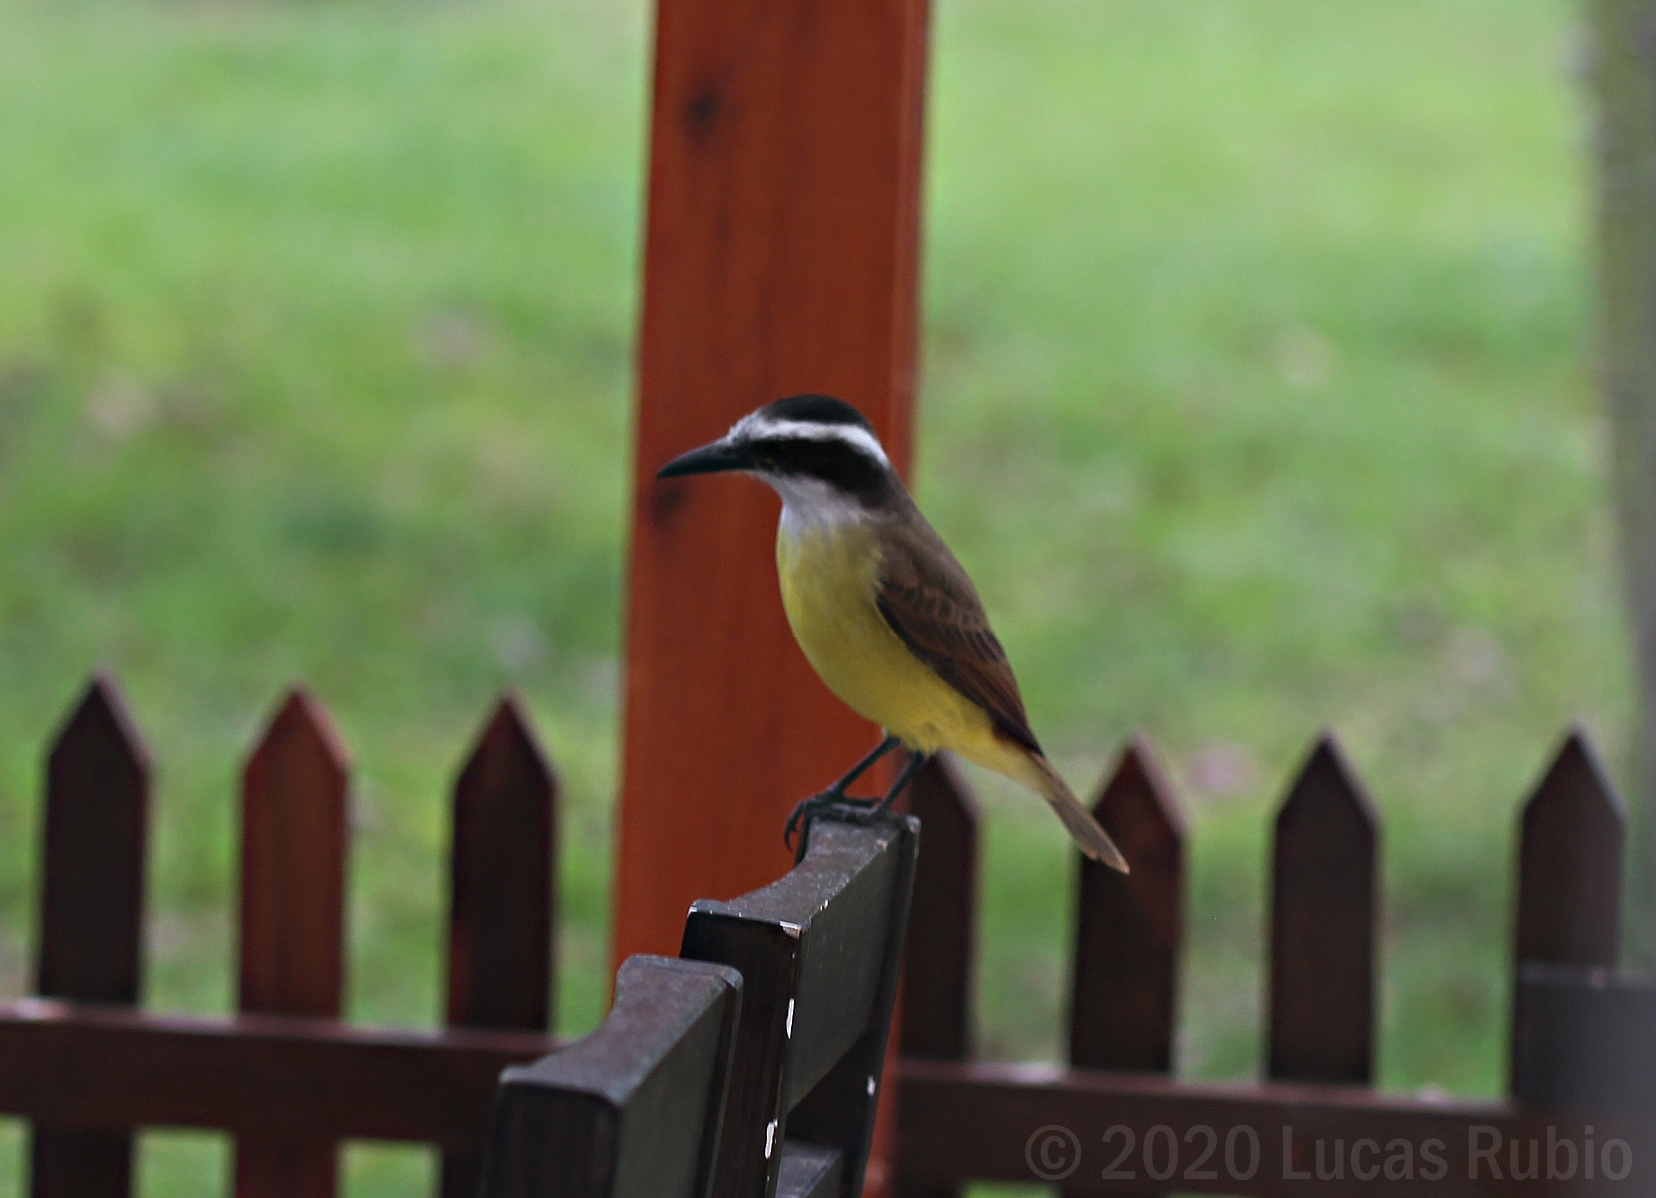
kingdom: Animalia
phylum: Chordata
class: Aves
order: Passeriformes
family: Tyrannidae
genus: Pitangus
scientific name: Pitangus sulphuratus
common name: Great kiskadee
